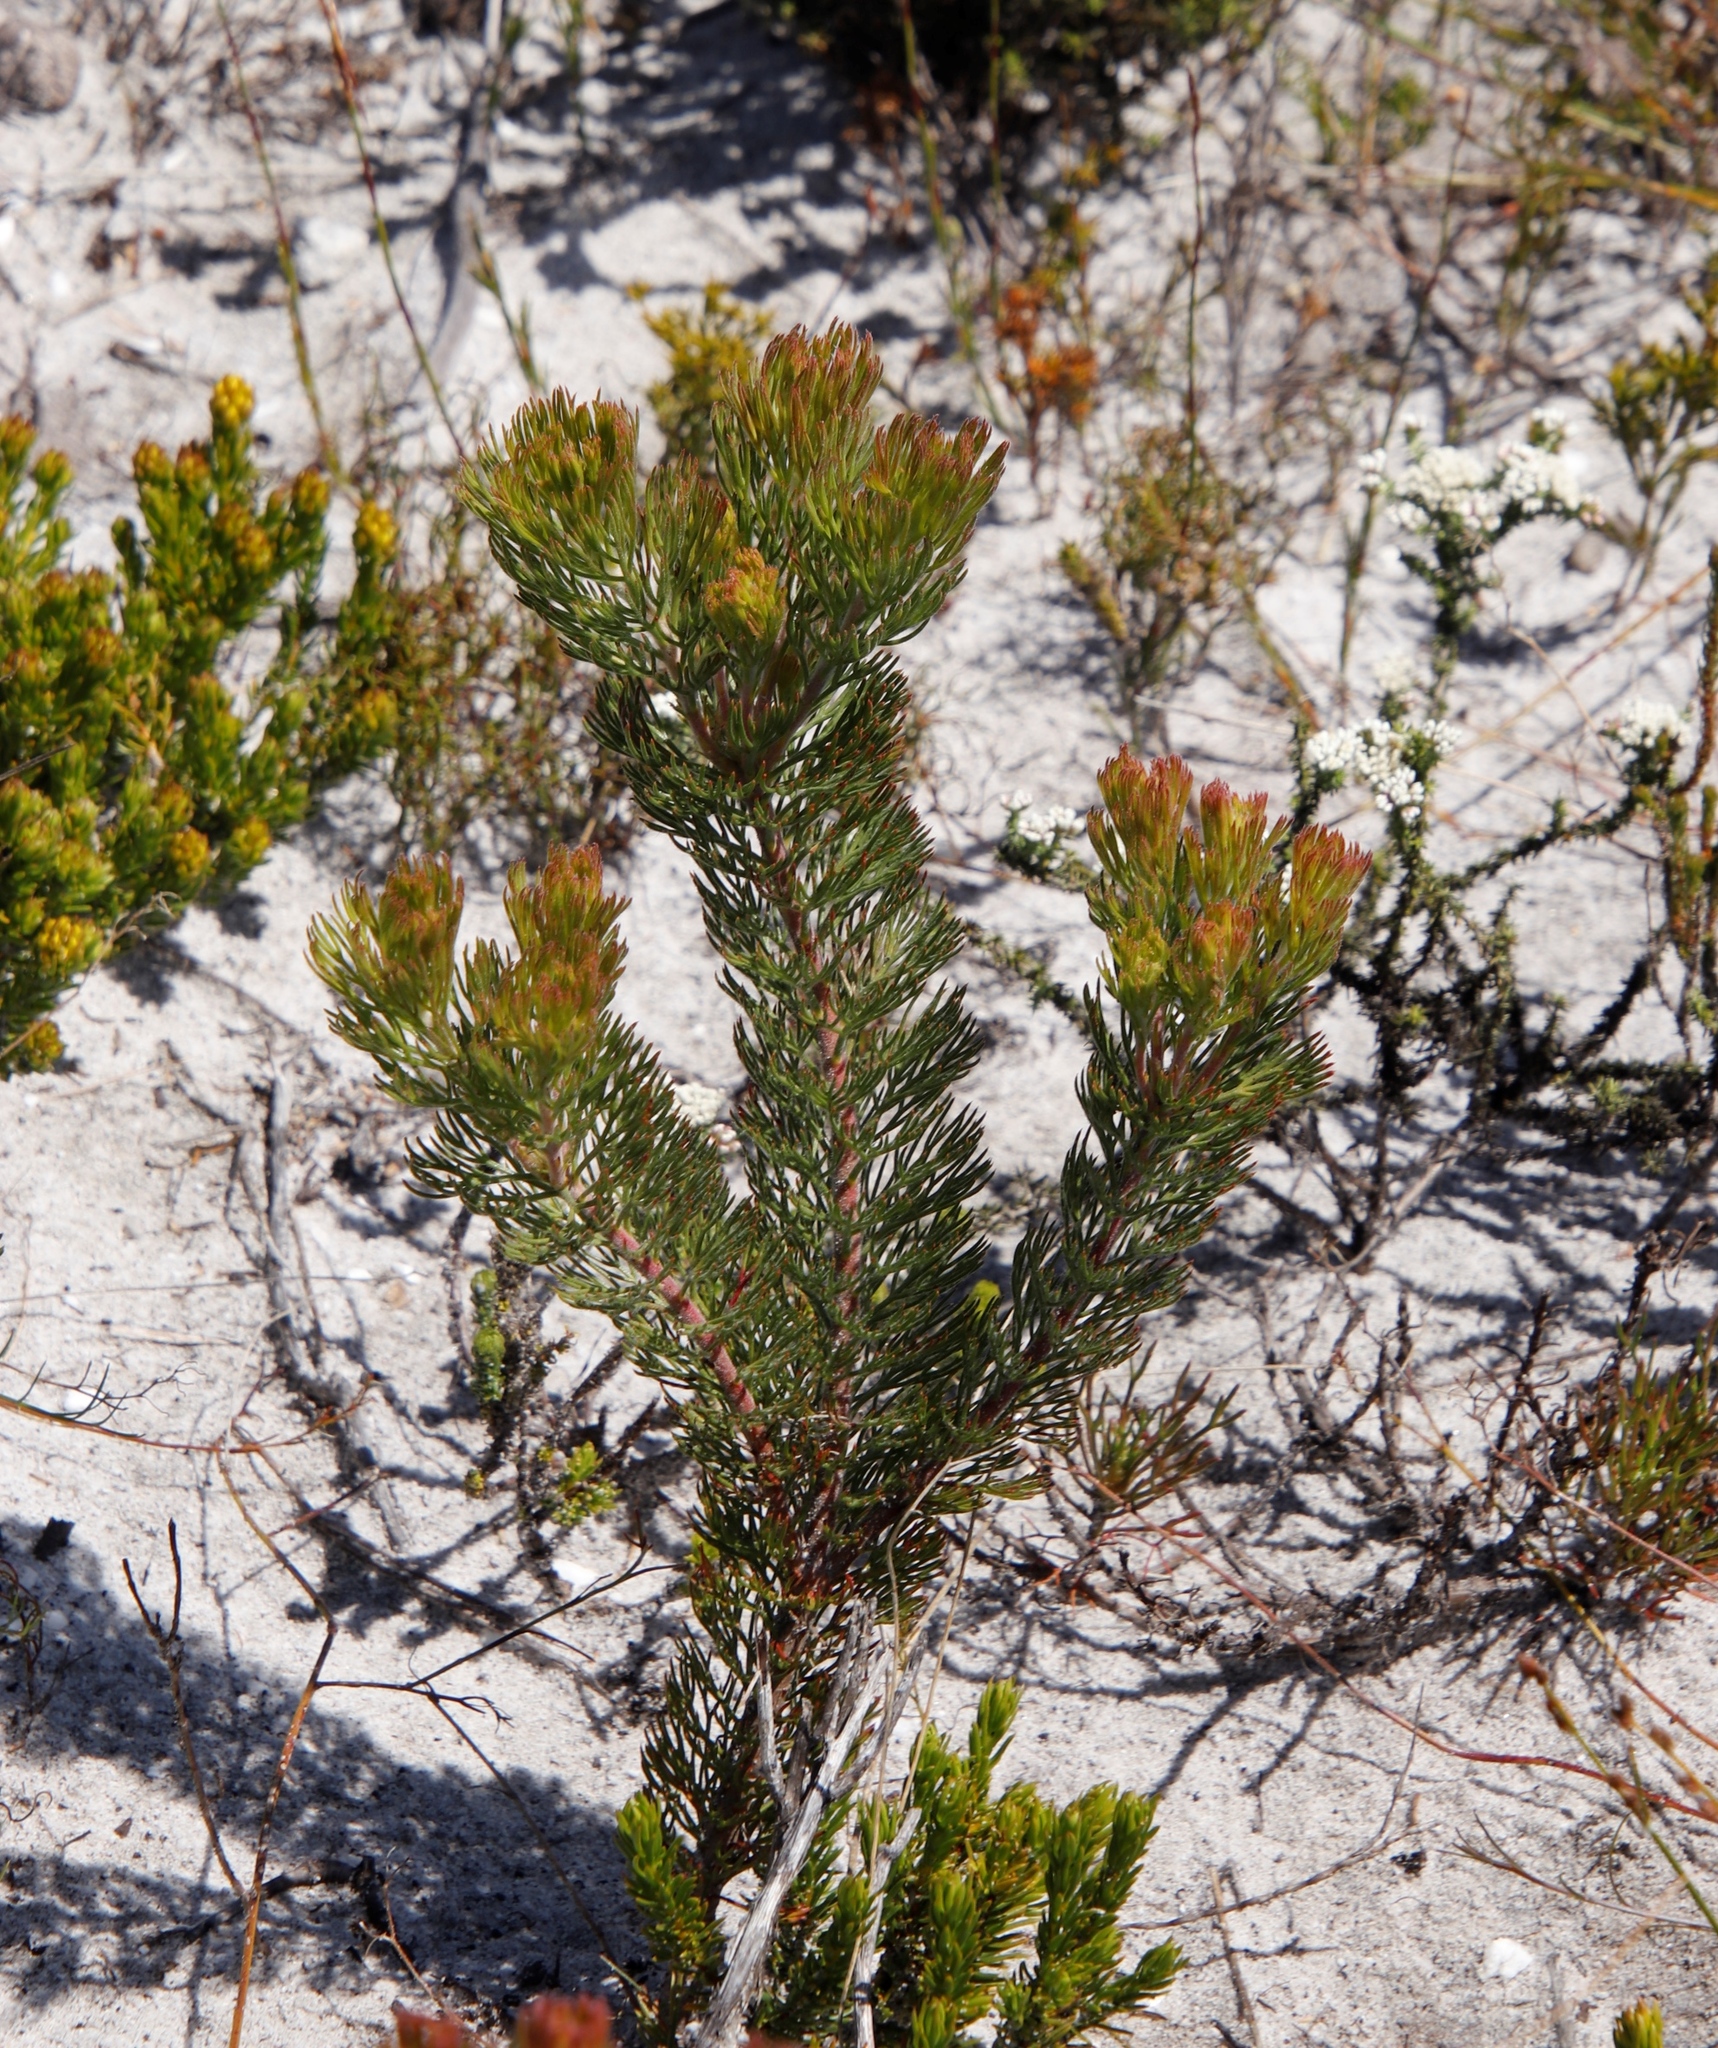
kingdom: Plantae
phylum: Tracheophyta
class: Magnoliopsida
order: Proteales
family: Proteaceae
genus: Serruria
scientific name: Serruria villosa
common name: Golden spiderhead
